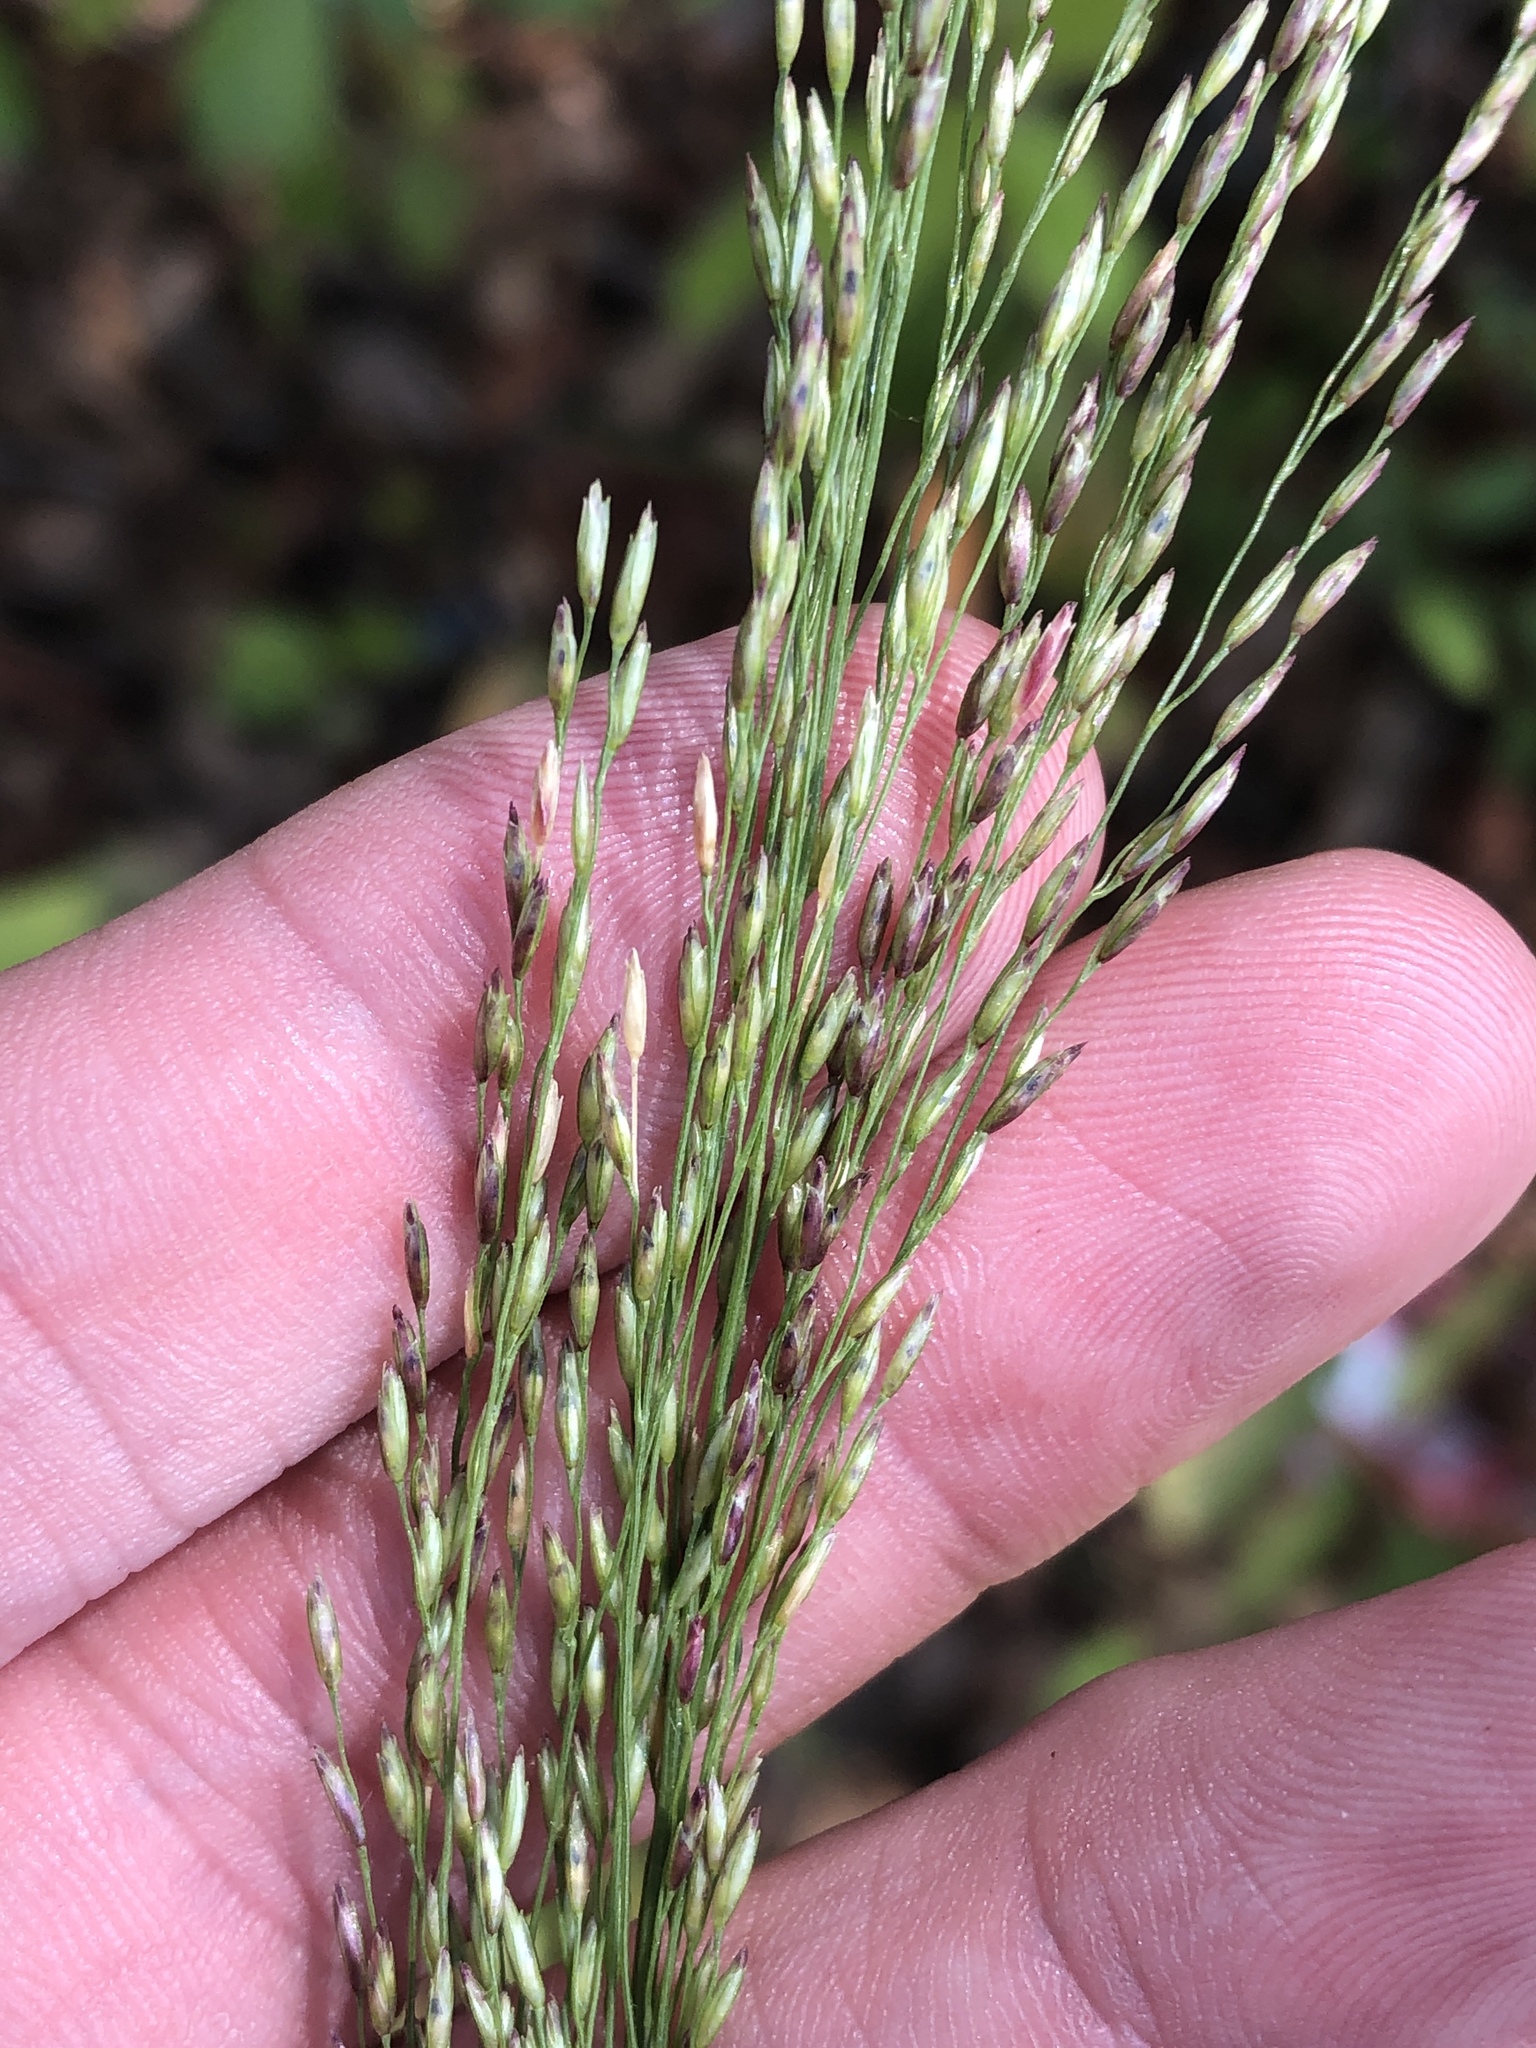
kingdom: Plantae
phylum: Tracheophyta
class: Liliopsida
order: Poales
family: Poaceae
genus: Tridens
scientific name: Tridens flavus
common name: Purpletop
